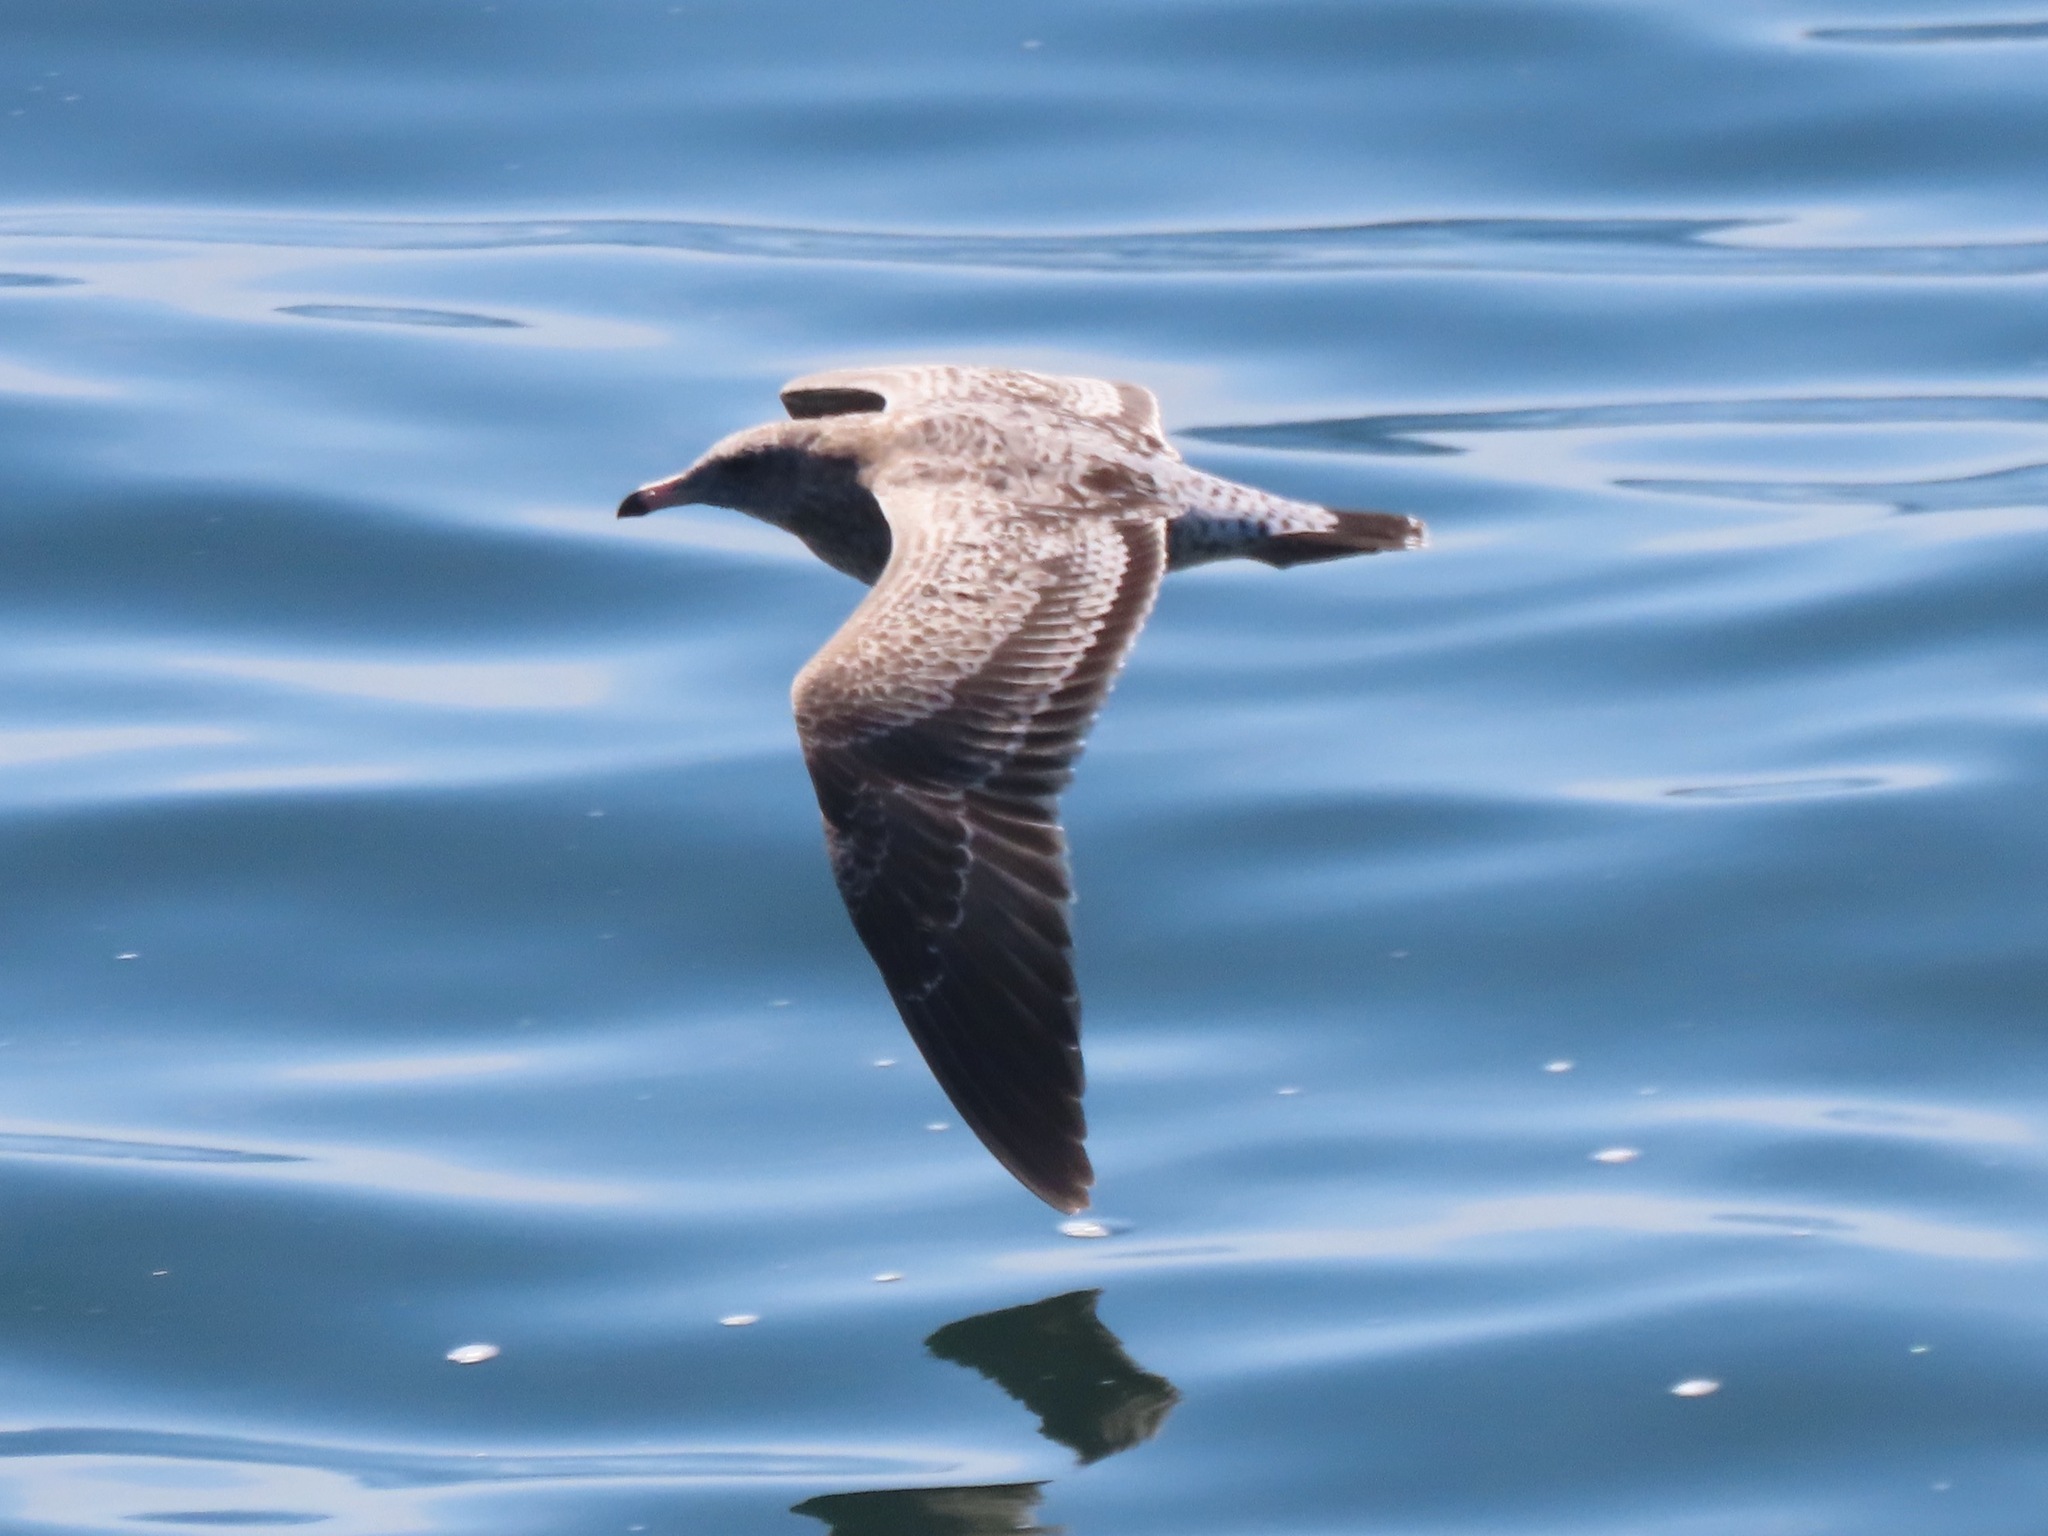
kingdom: Animalia
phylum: Chordata
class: Aves
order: Charadriiformes
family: Laridae
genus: Larus
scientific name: Larus californicus
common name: California gull
